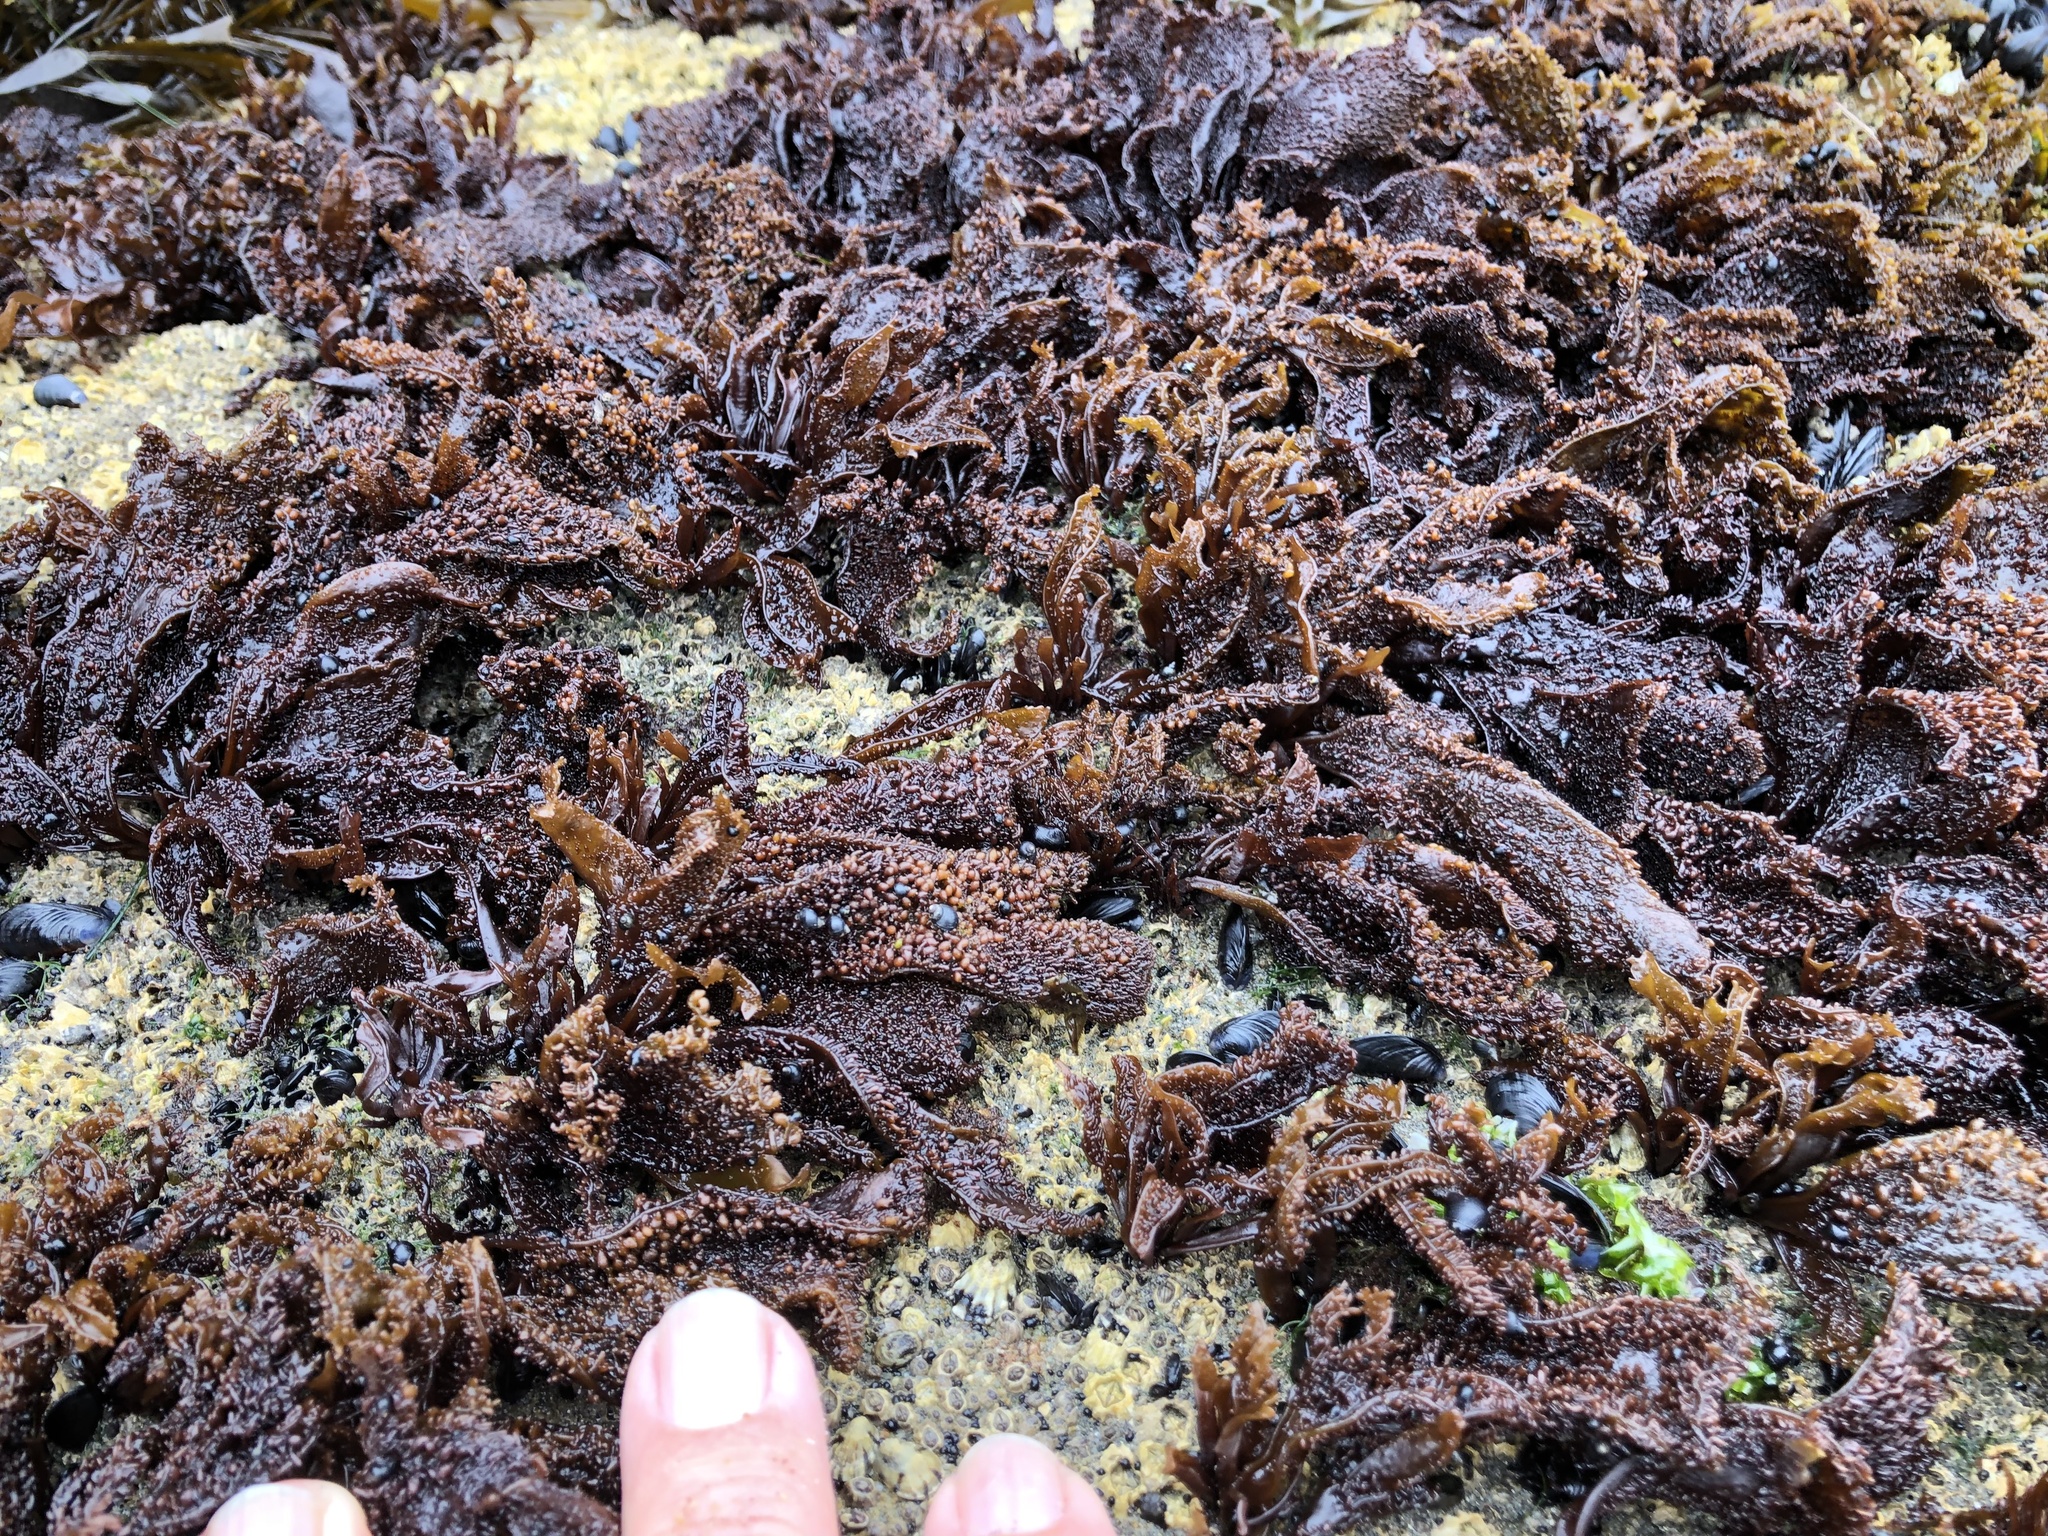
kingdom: Plantae
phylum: Rhodophyta
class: Florideophyceae
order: Gigartinales
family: Phyllophoraceae
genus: Mastocarpus
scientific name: Mastocarpus papillatus
